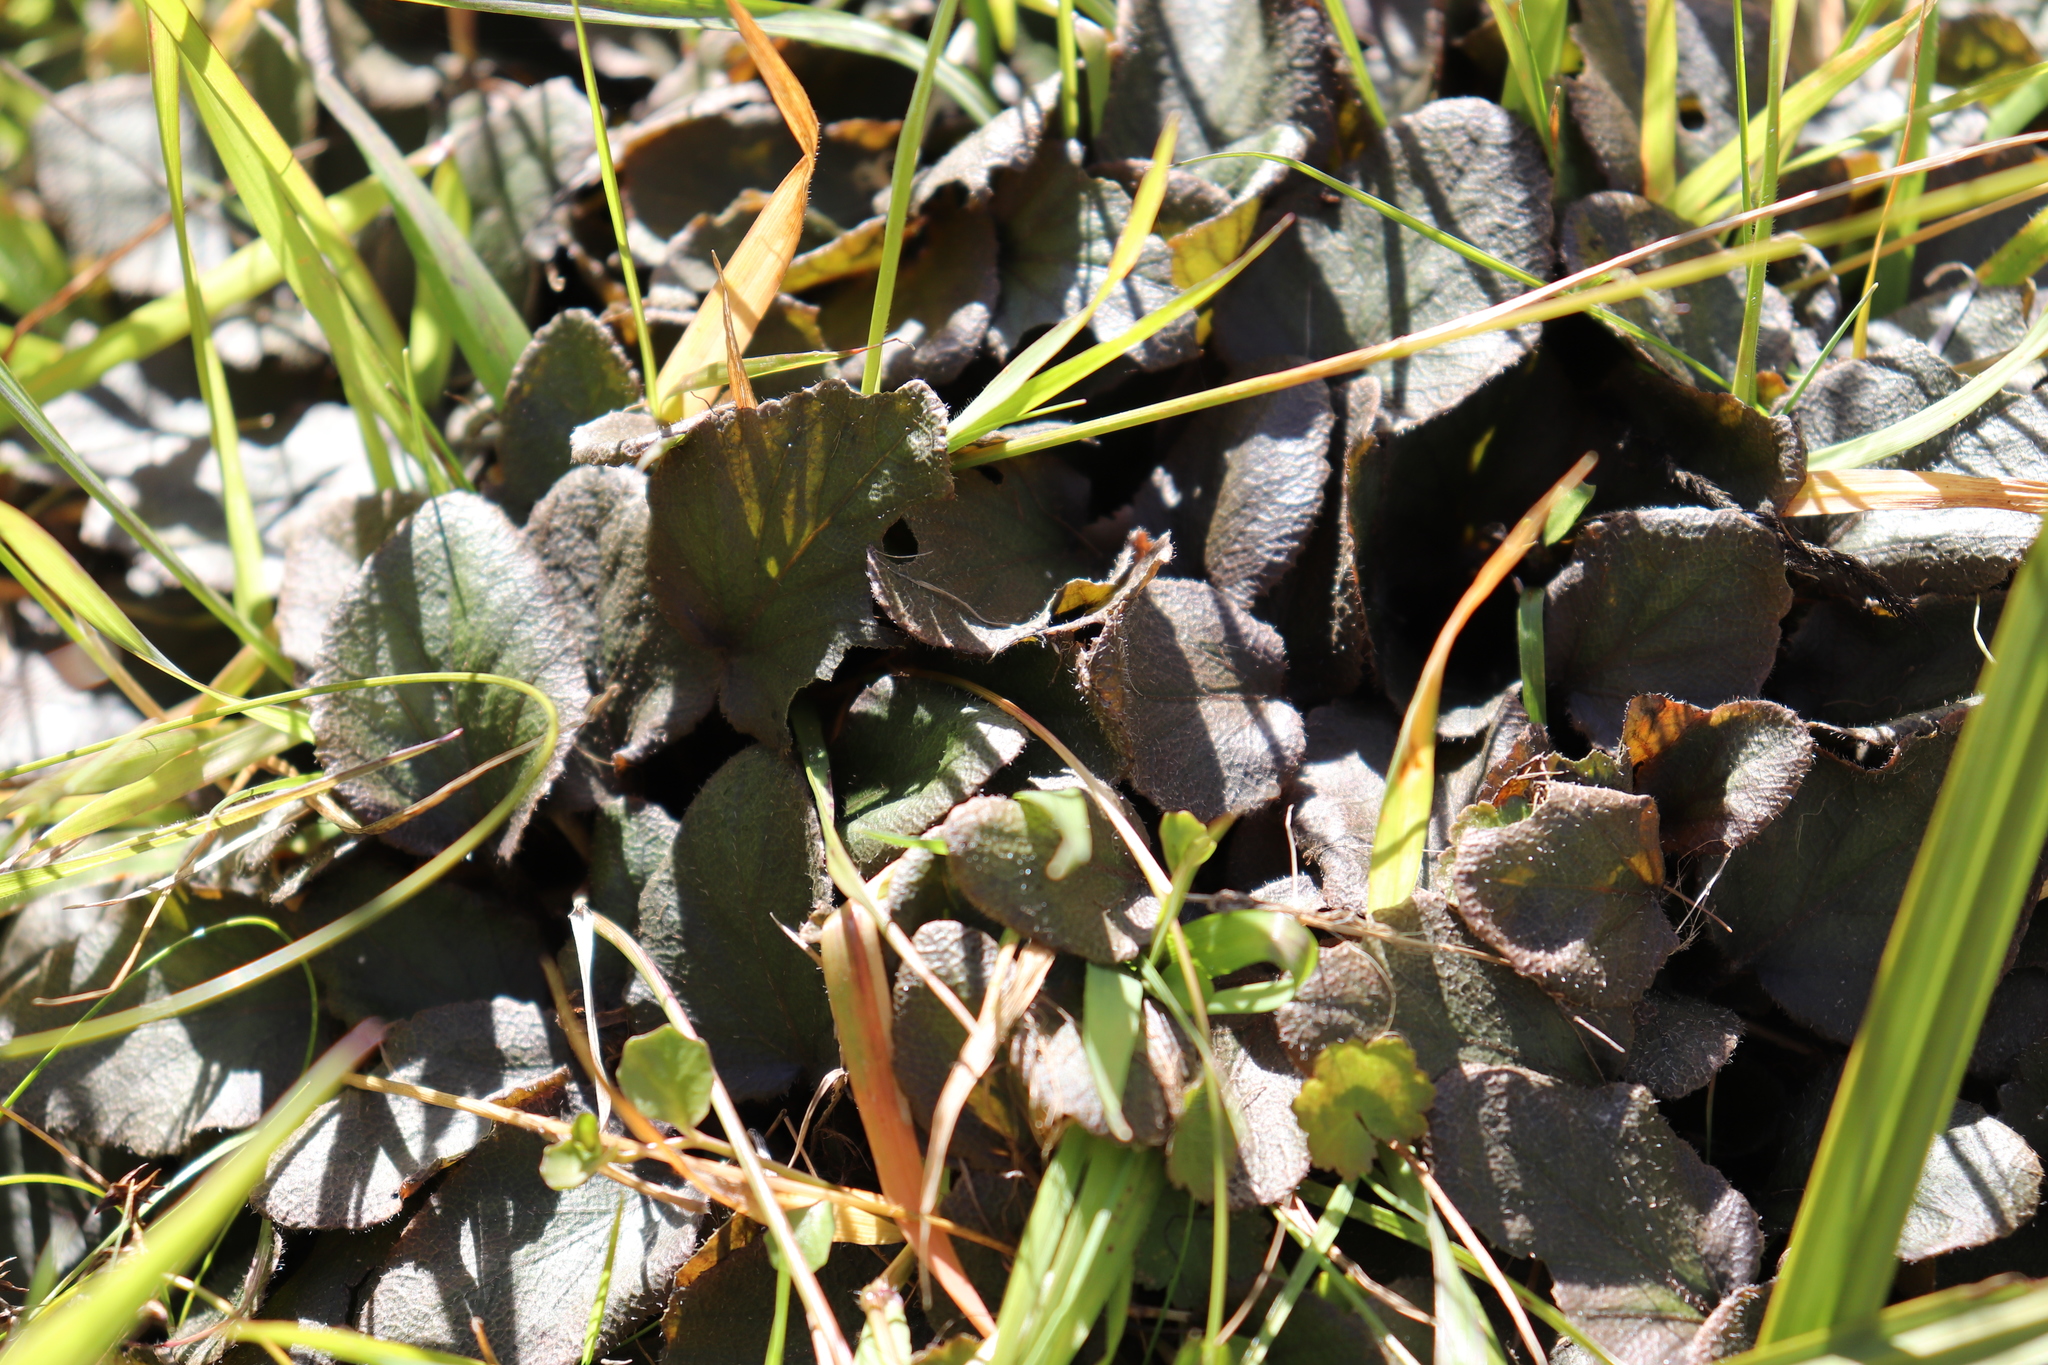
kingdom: Plantae
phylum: Tracheophyta
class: Magnoliopsida
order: Gunnerales
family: Gunneraceae
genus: Gunnera
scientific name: Gunnera prorepens
